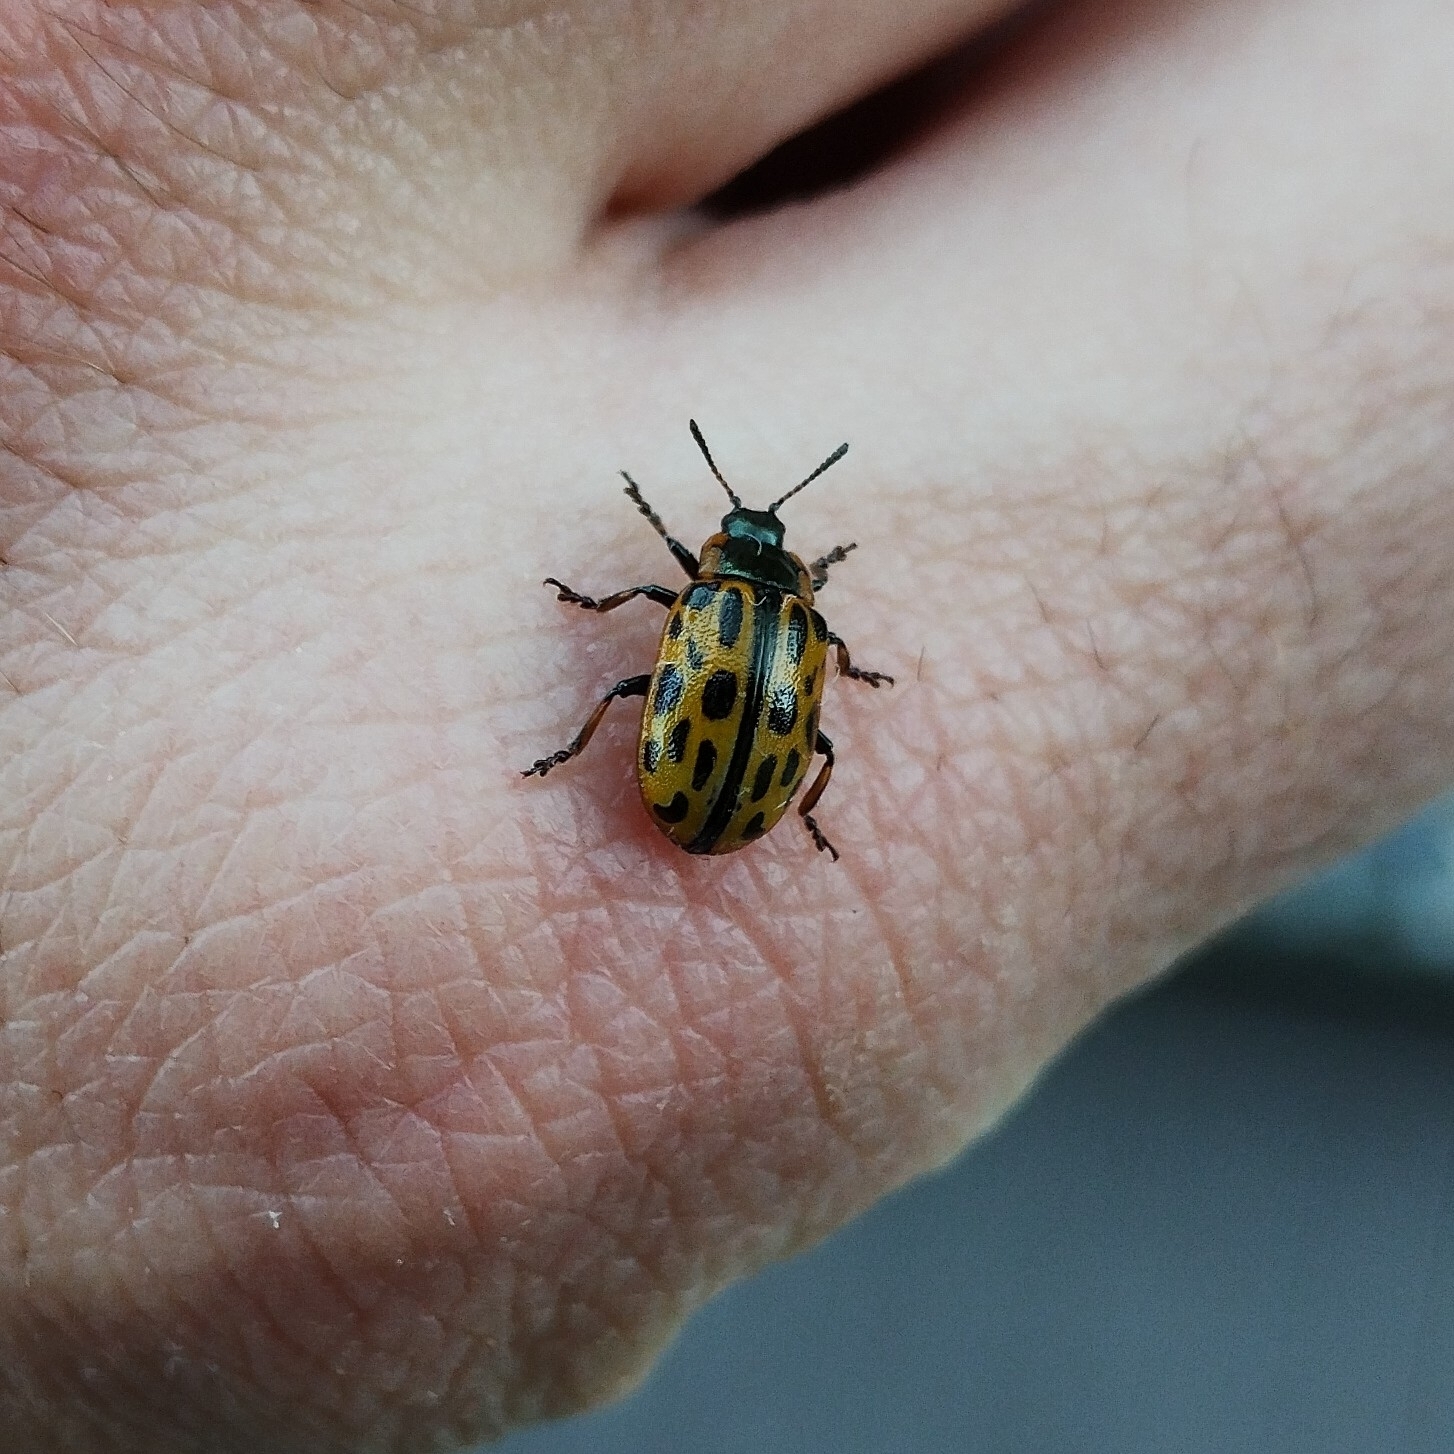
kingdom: Animalia
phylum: Arthropoda
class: Insecta
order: Coleoptera
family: Chrysomelidae
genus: Chrysomela
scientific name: Chrysomela vigintipunctata
